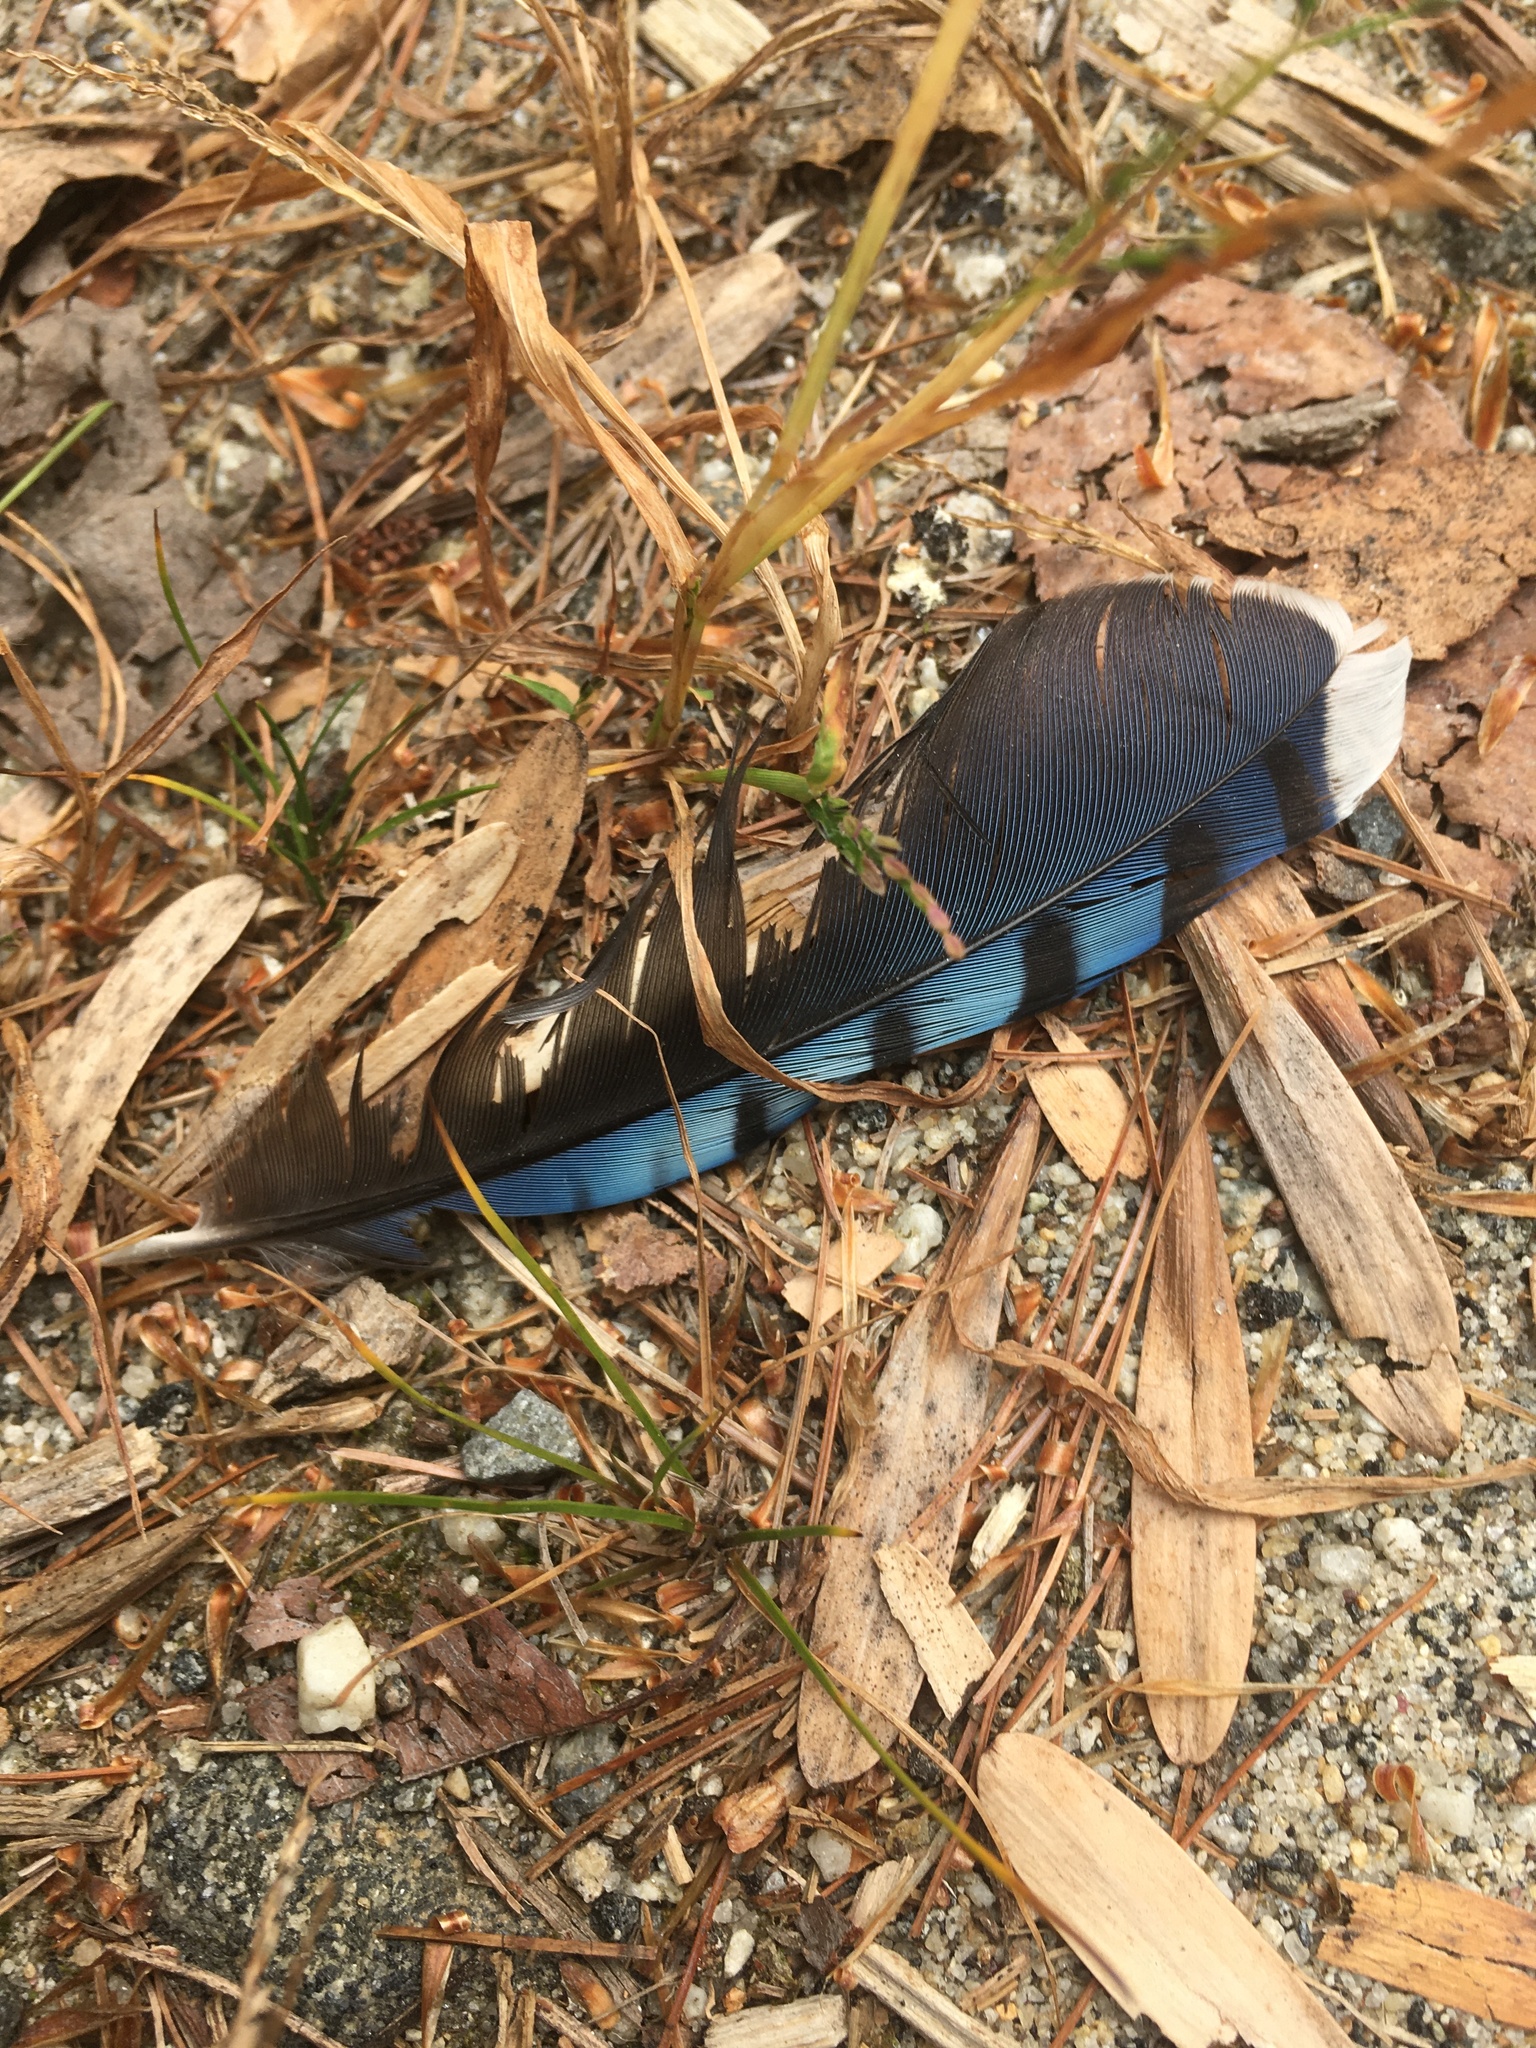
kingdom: Animalia
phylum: Chordata
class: Aves
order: Passeriformes
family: Corvidae
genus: Cyanocitta
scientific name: Cyanocitta cristata
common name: Blue jay
